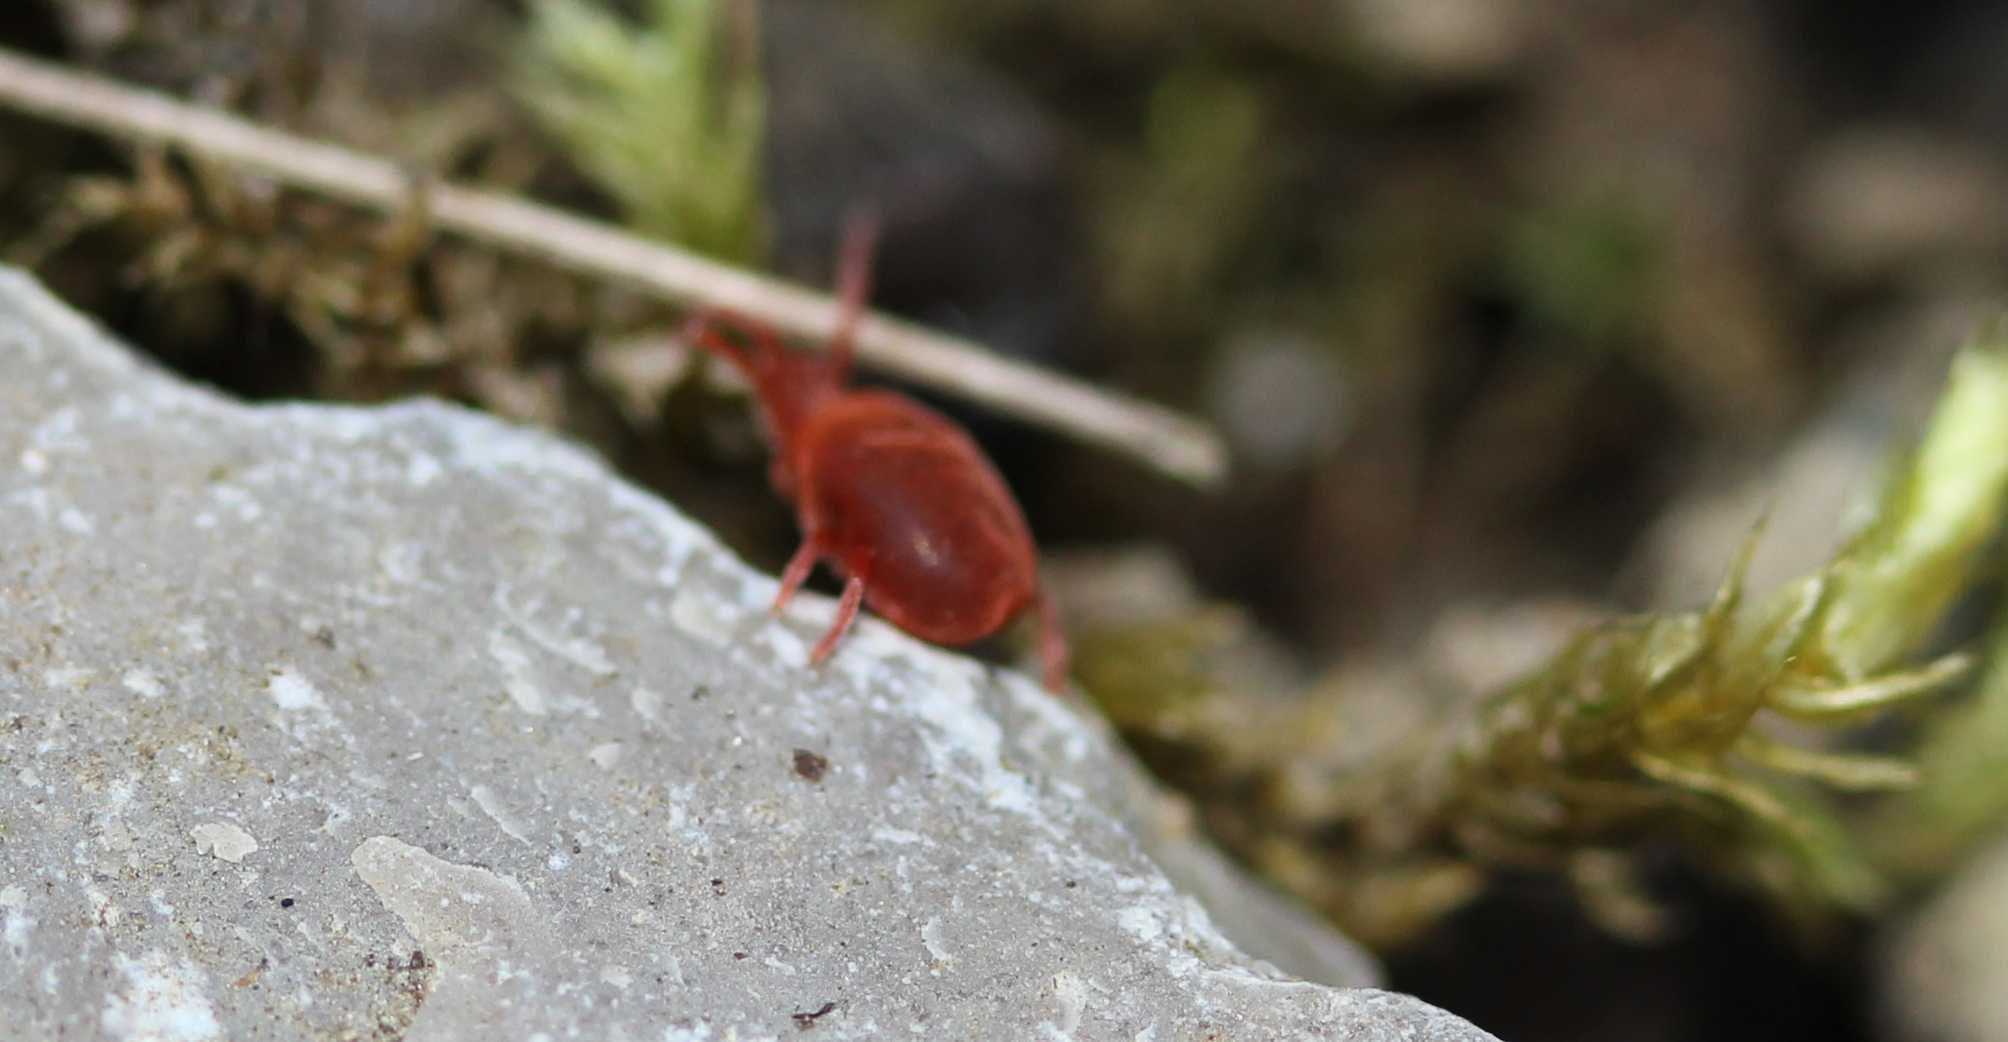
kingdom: Animalia
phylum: Arthropoda
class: Arachnida
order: Trombidiformes
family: Trombidiidae
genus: Allothrombium
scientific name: Allothrombium
